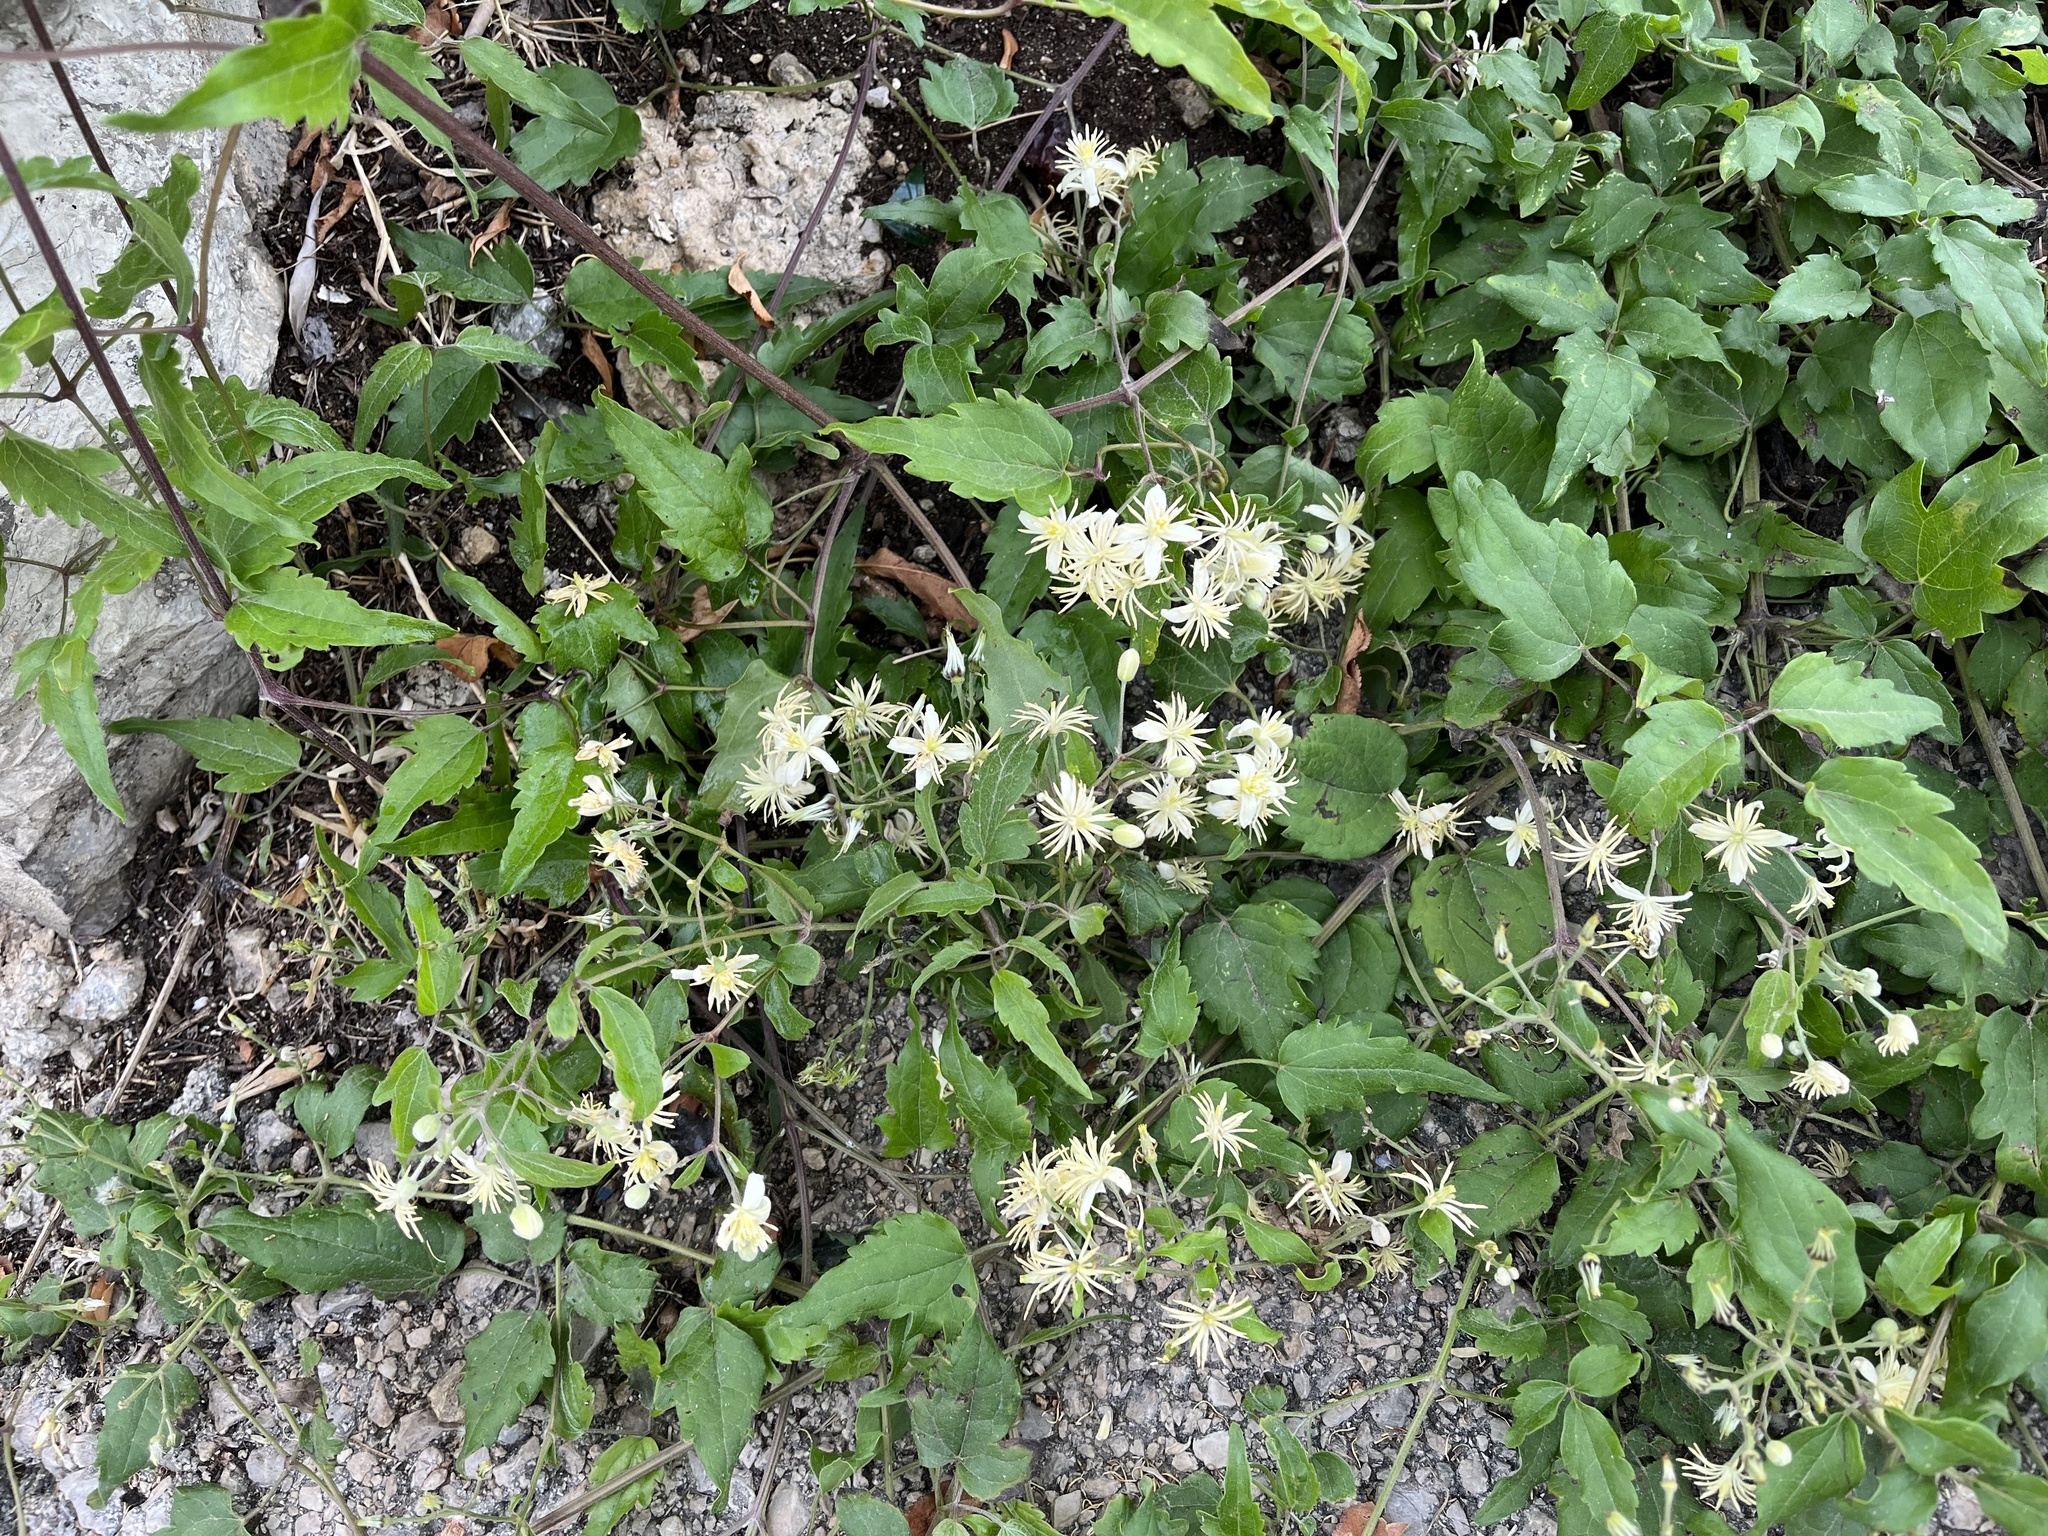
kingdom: Plantae
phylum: Tracheophyta
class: Magnoliopsida
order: Ranunculales
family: Ranunculaceae
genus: Clematis
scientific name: Clematis vitalba
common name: Evergreen clematis
